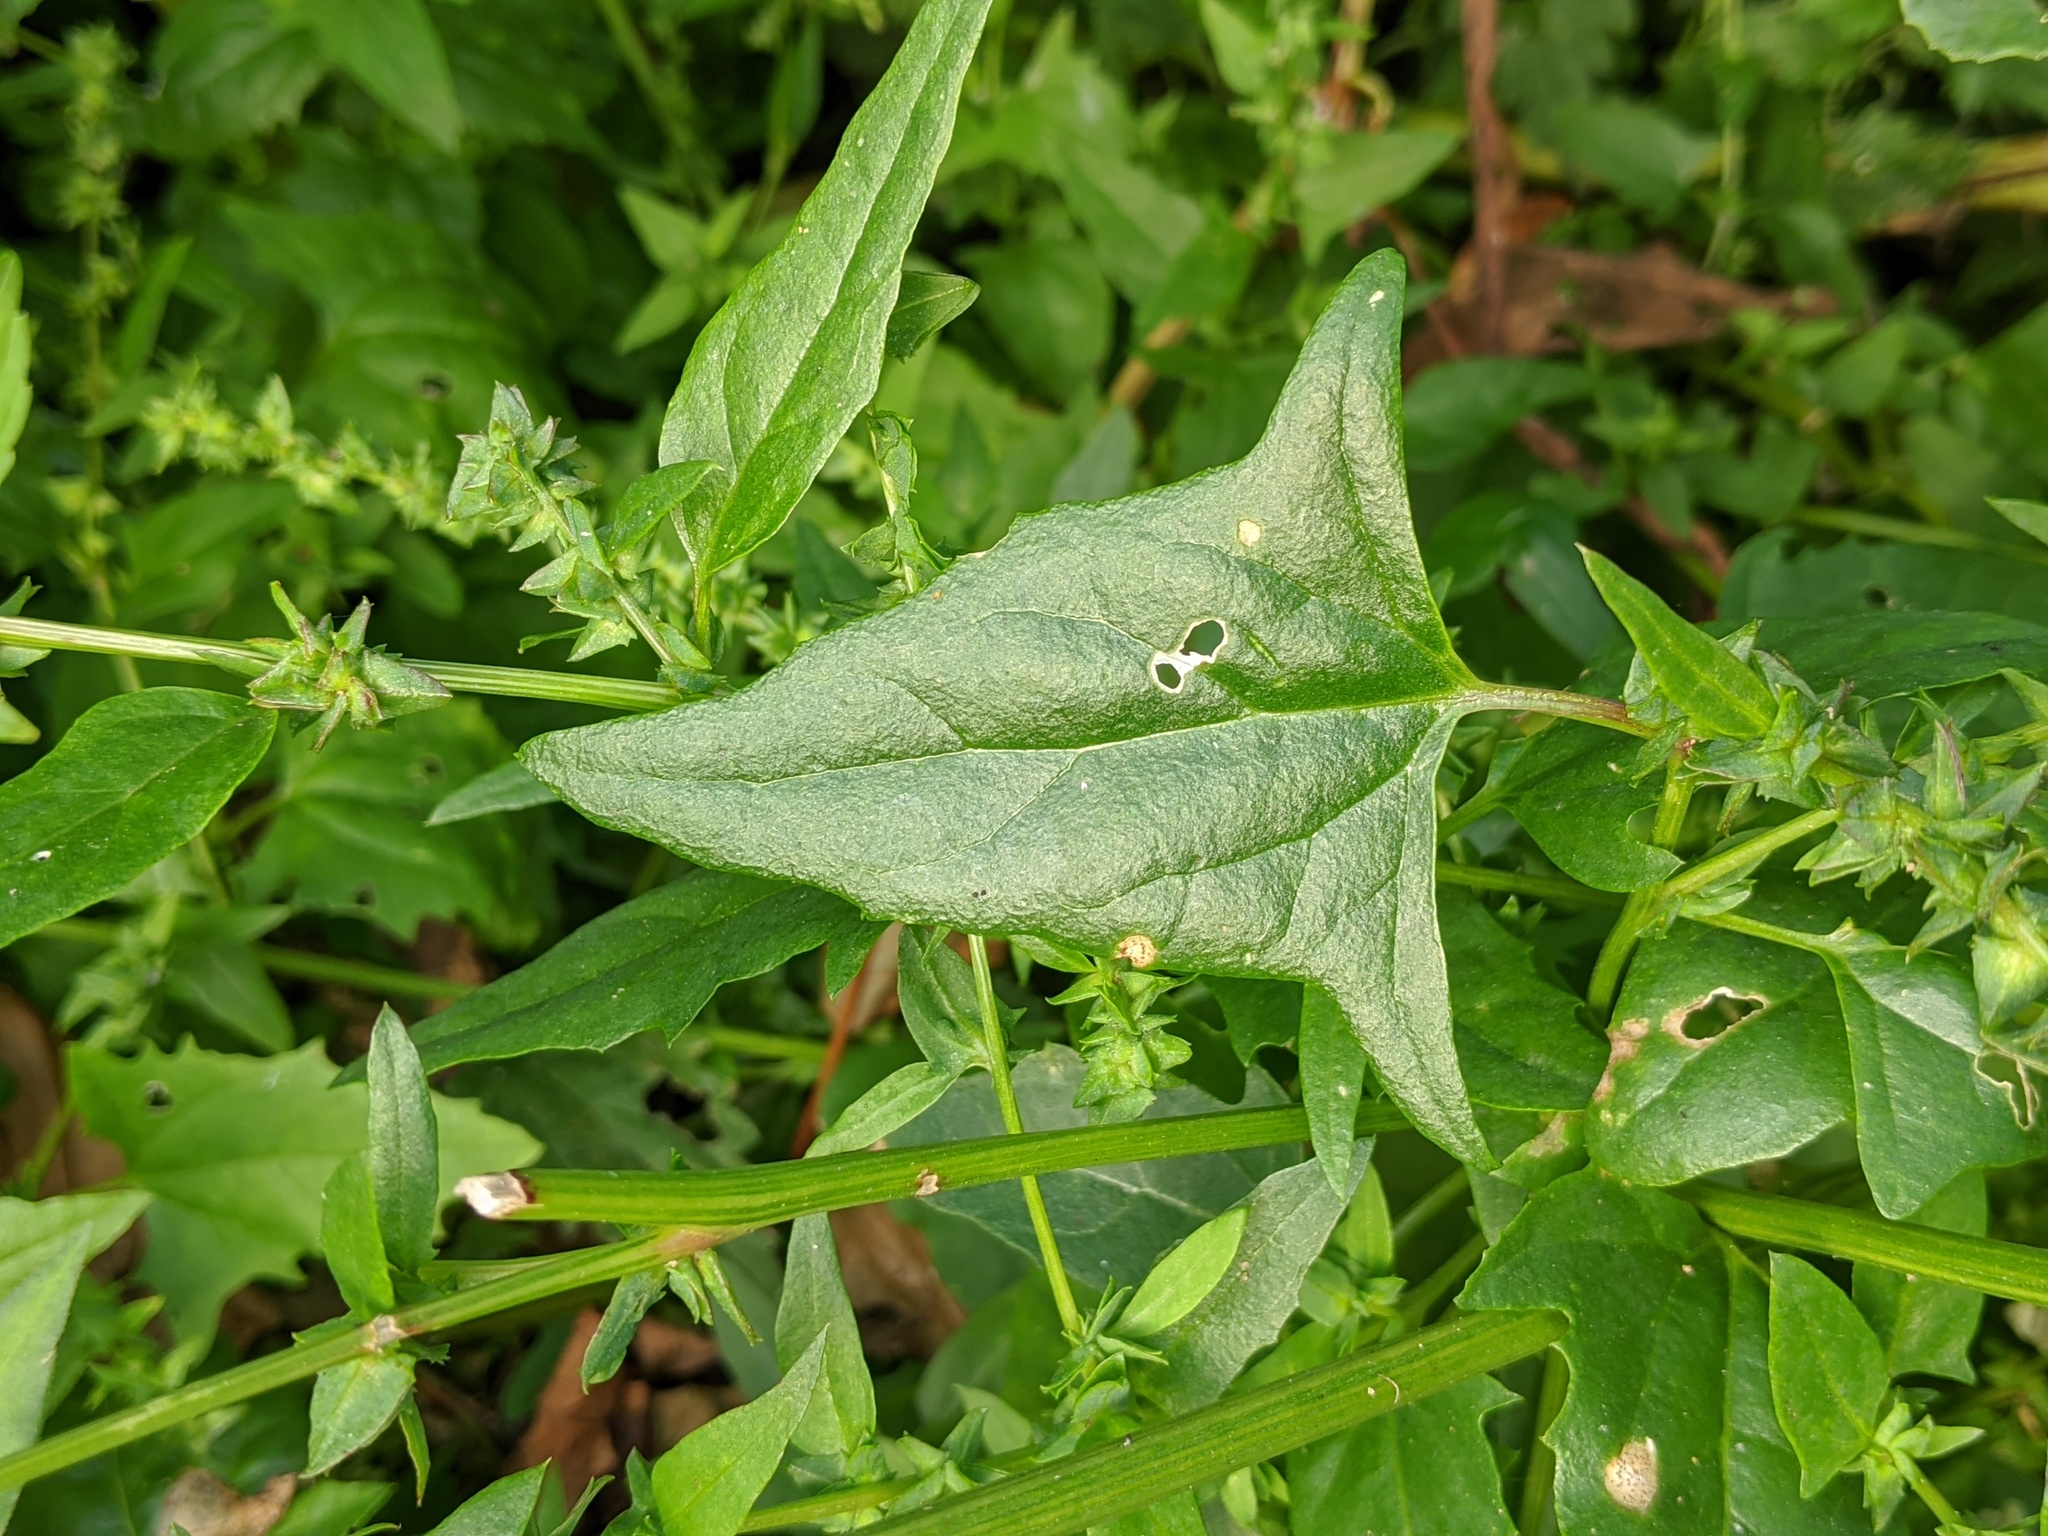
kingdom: Plantae
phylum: Tracheophyta
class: Magnoliopsida
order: Caryophyllales
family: Amaranthaceae
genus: Atriplex
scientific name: Atriplex prostrata
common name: Spear-leaved orache
